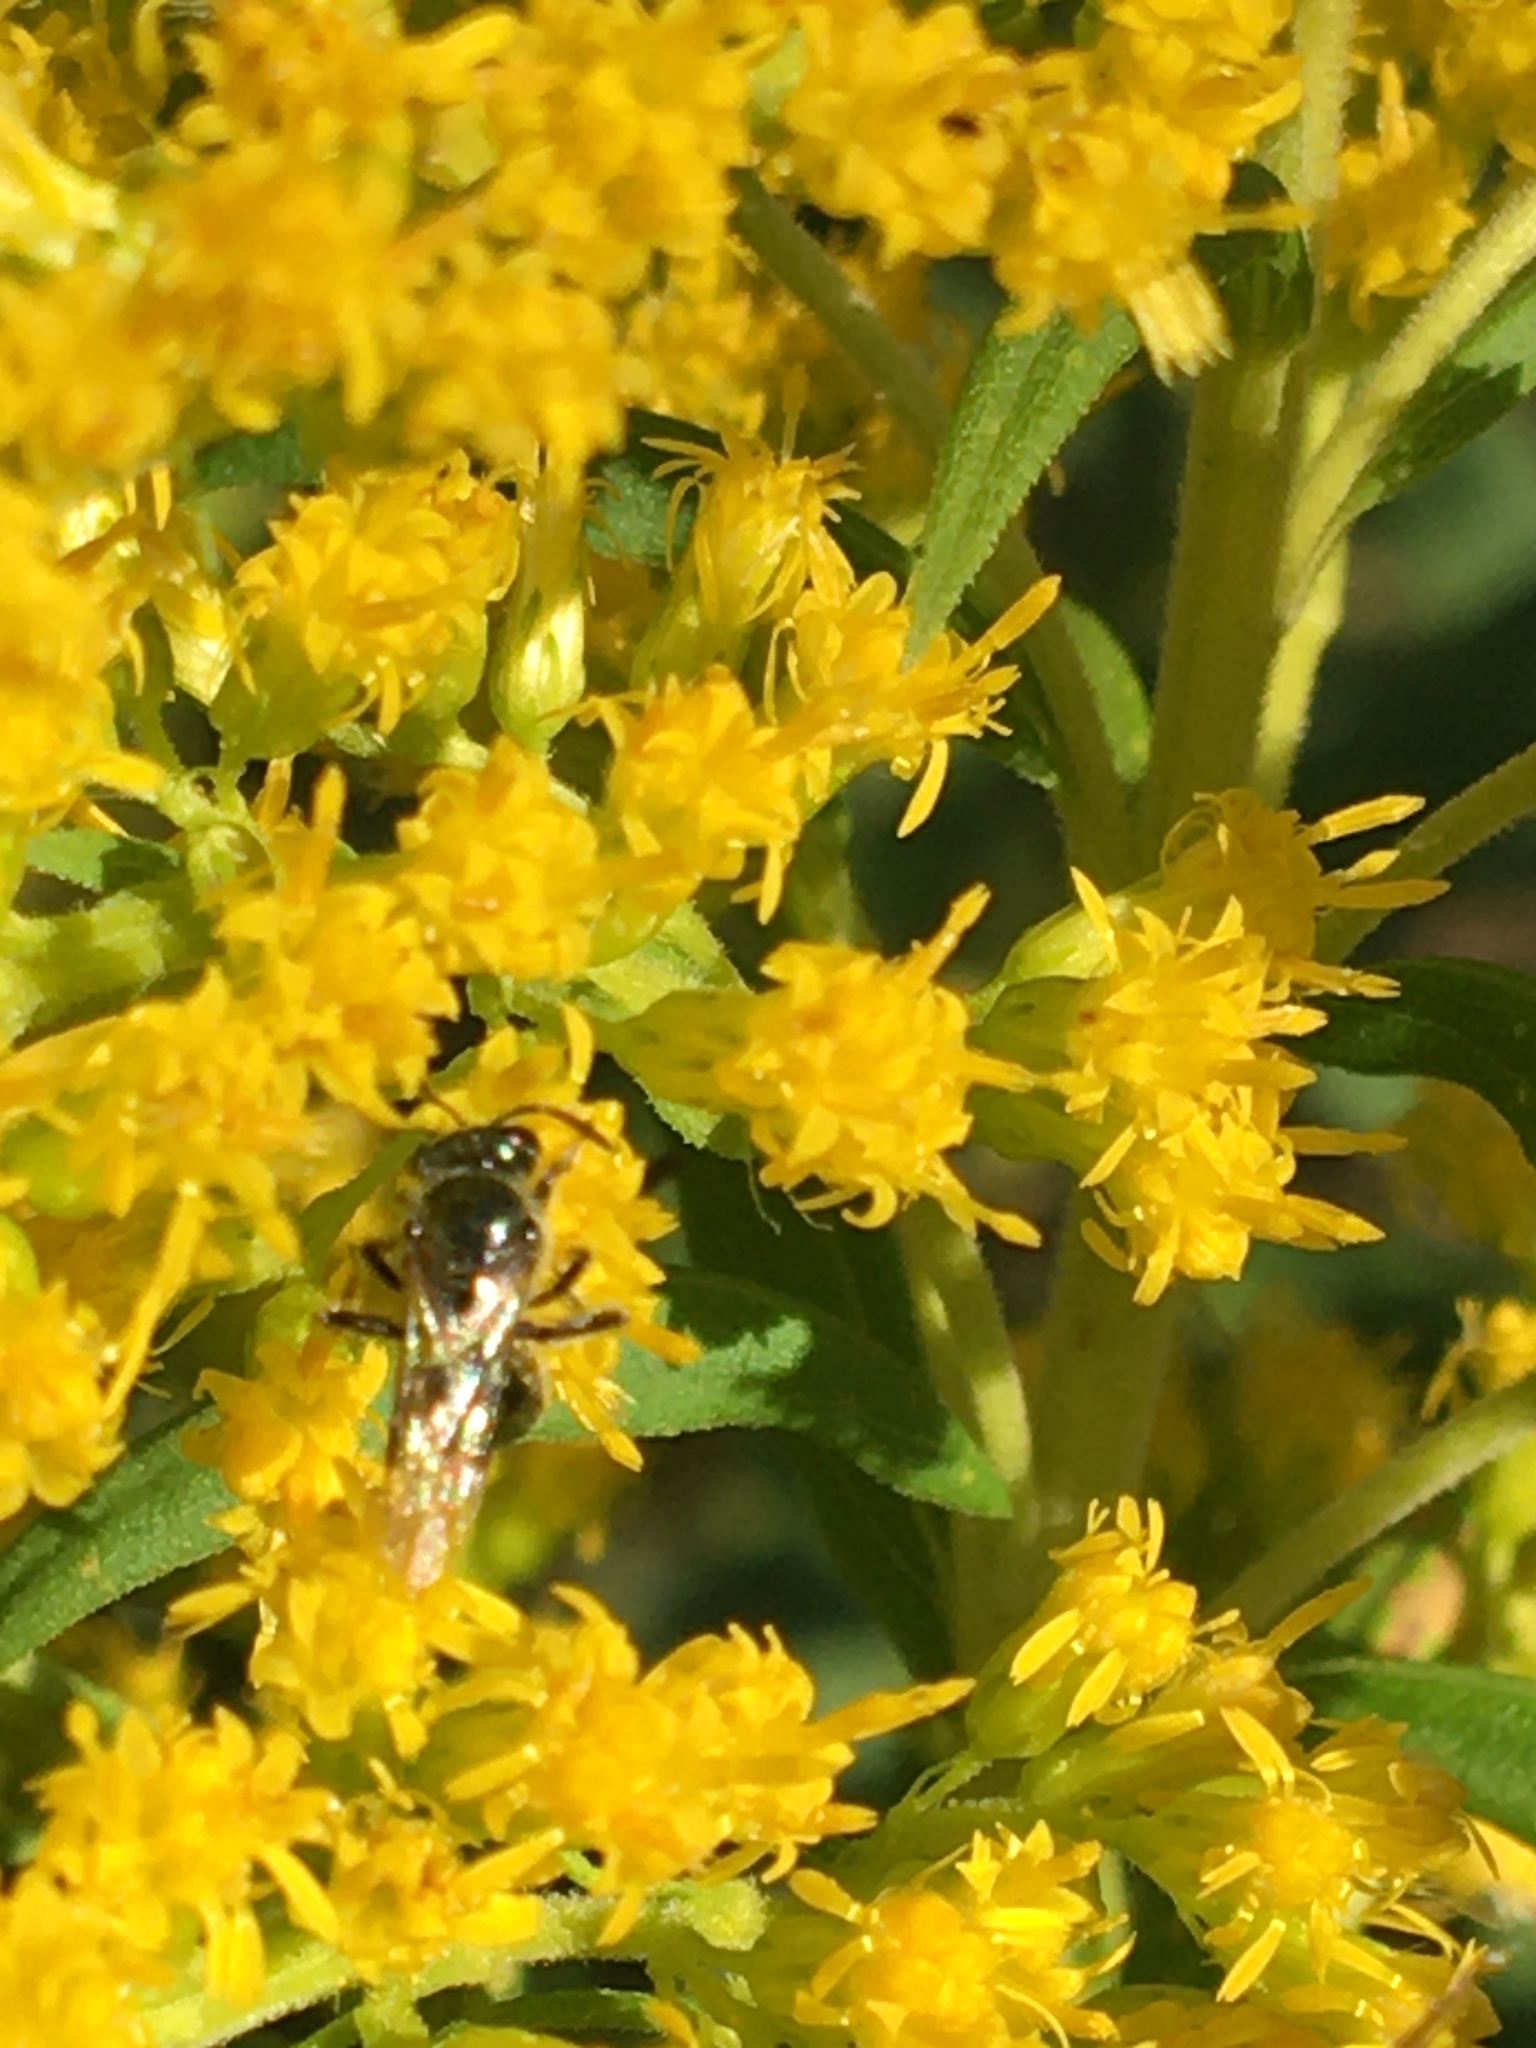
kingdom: Animalia
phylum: Arthropoda
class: Insecta
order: Hymenoptera
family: Halictidae
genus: Dialictus
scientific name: Dialictus
